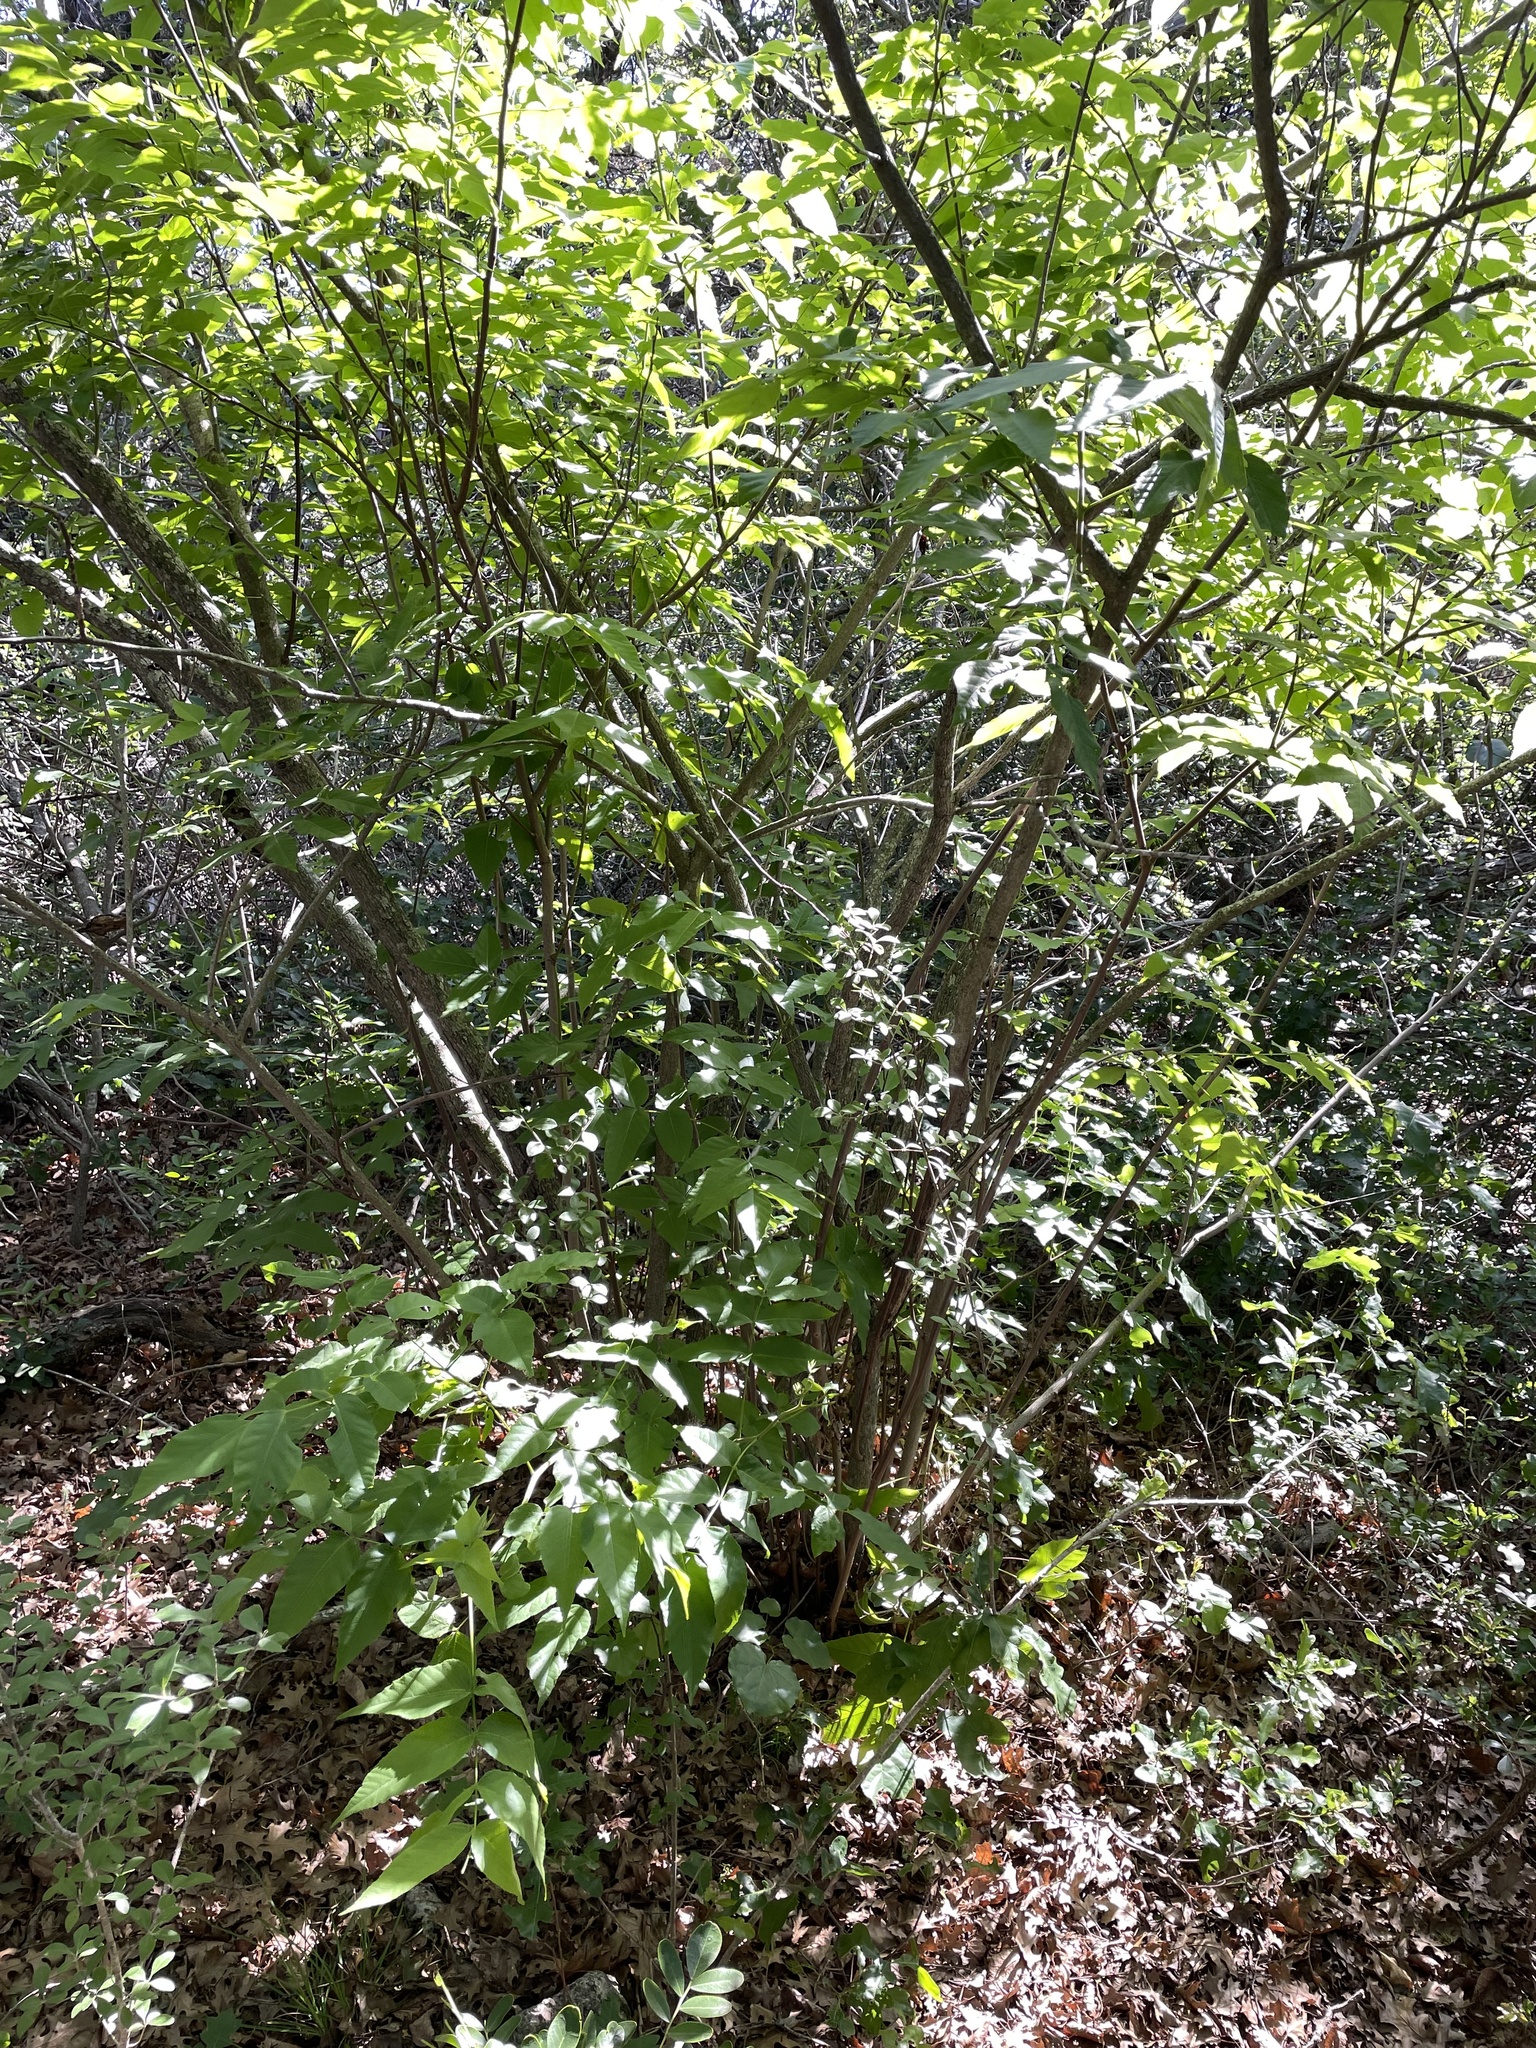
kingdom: Plantae
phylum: Tracheophyta
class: Magnoliopsida
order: Sapindales
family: Sapindaceae
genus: Ungnadia
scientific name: Ungnadia speciosa
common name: Texas-buckeye
